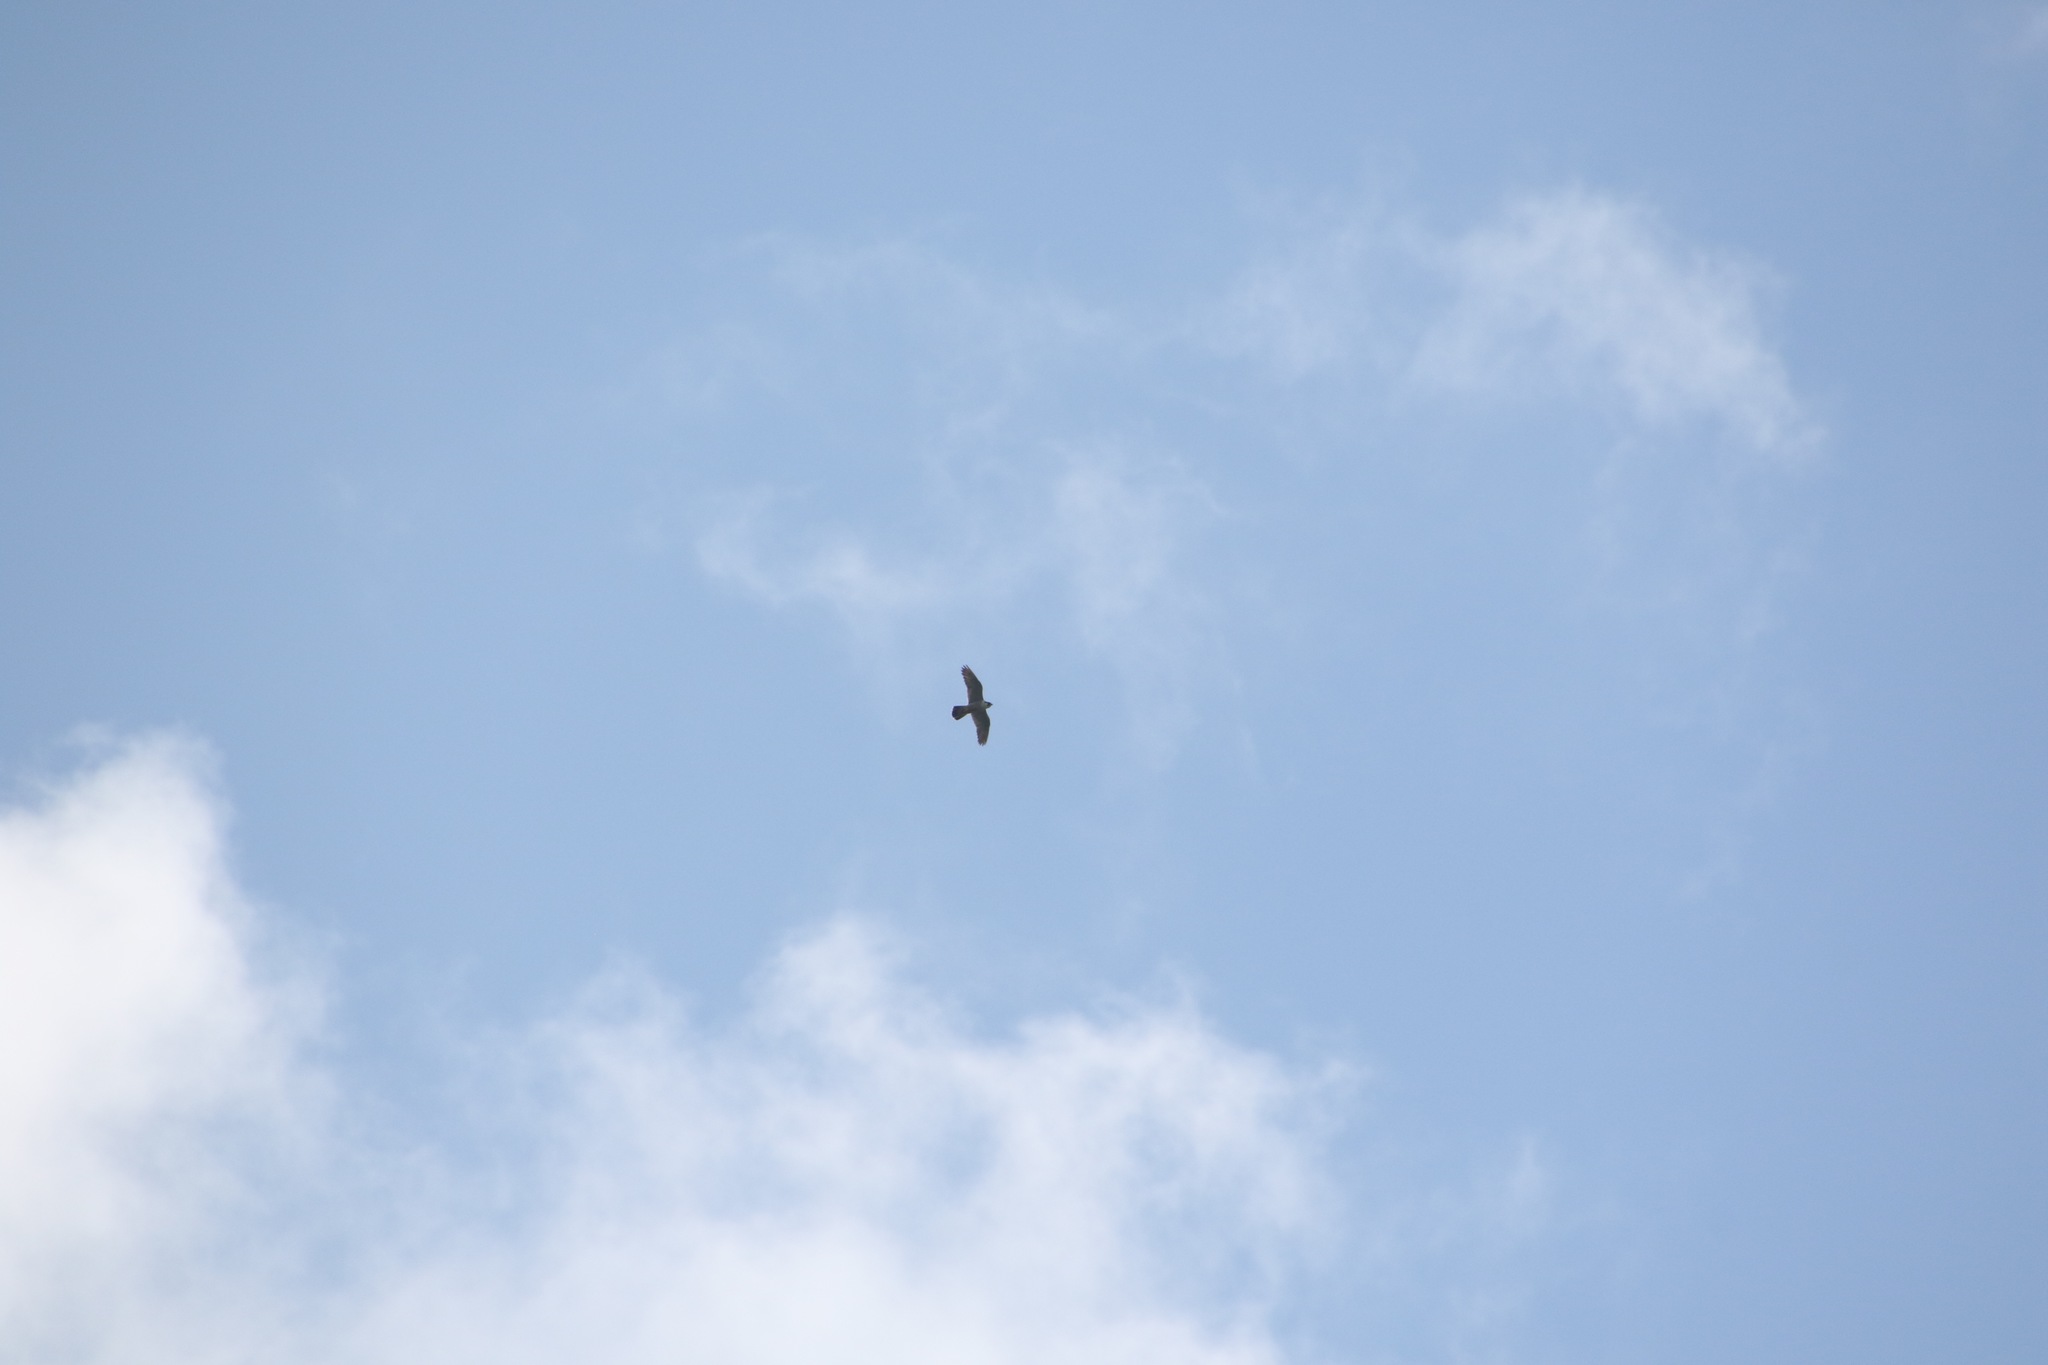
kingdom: Animalia
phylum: Chordata
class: Aves
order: Falconiformes
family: Falconidae
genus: Falco
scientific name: Falco peregrinus
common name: Peregrine falcon
